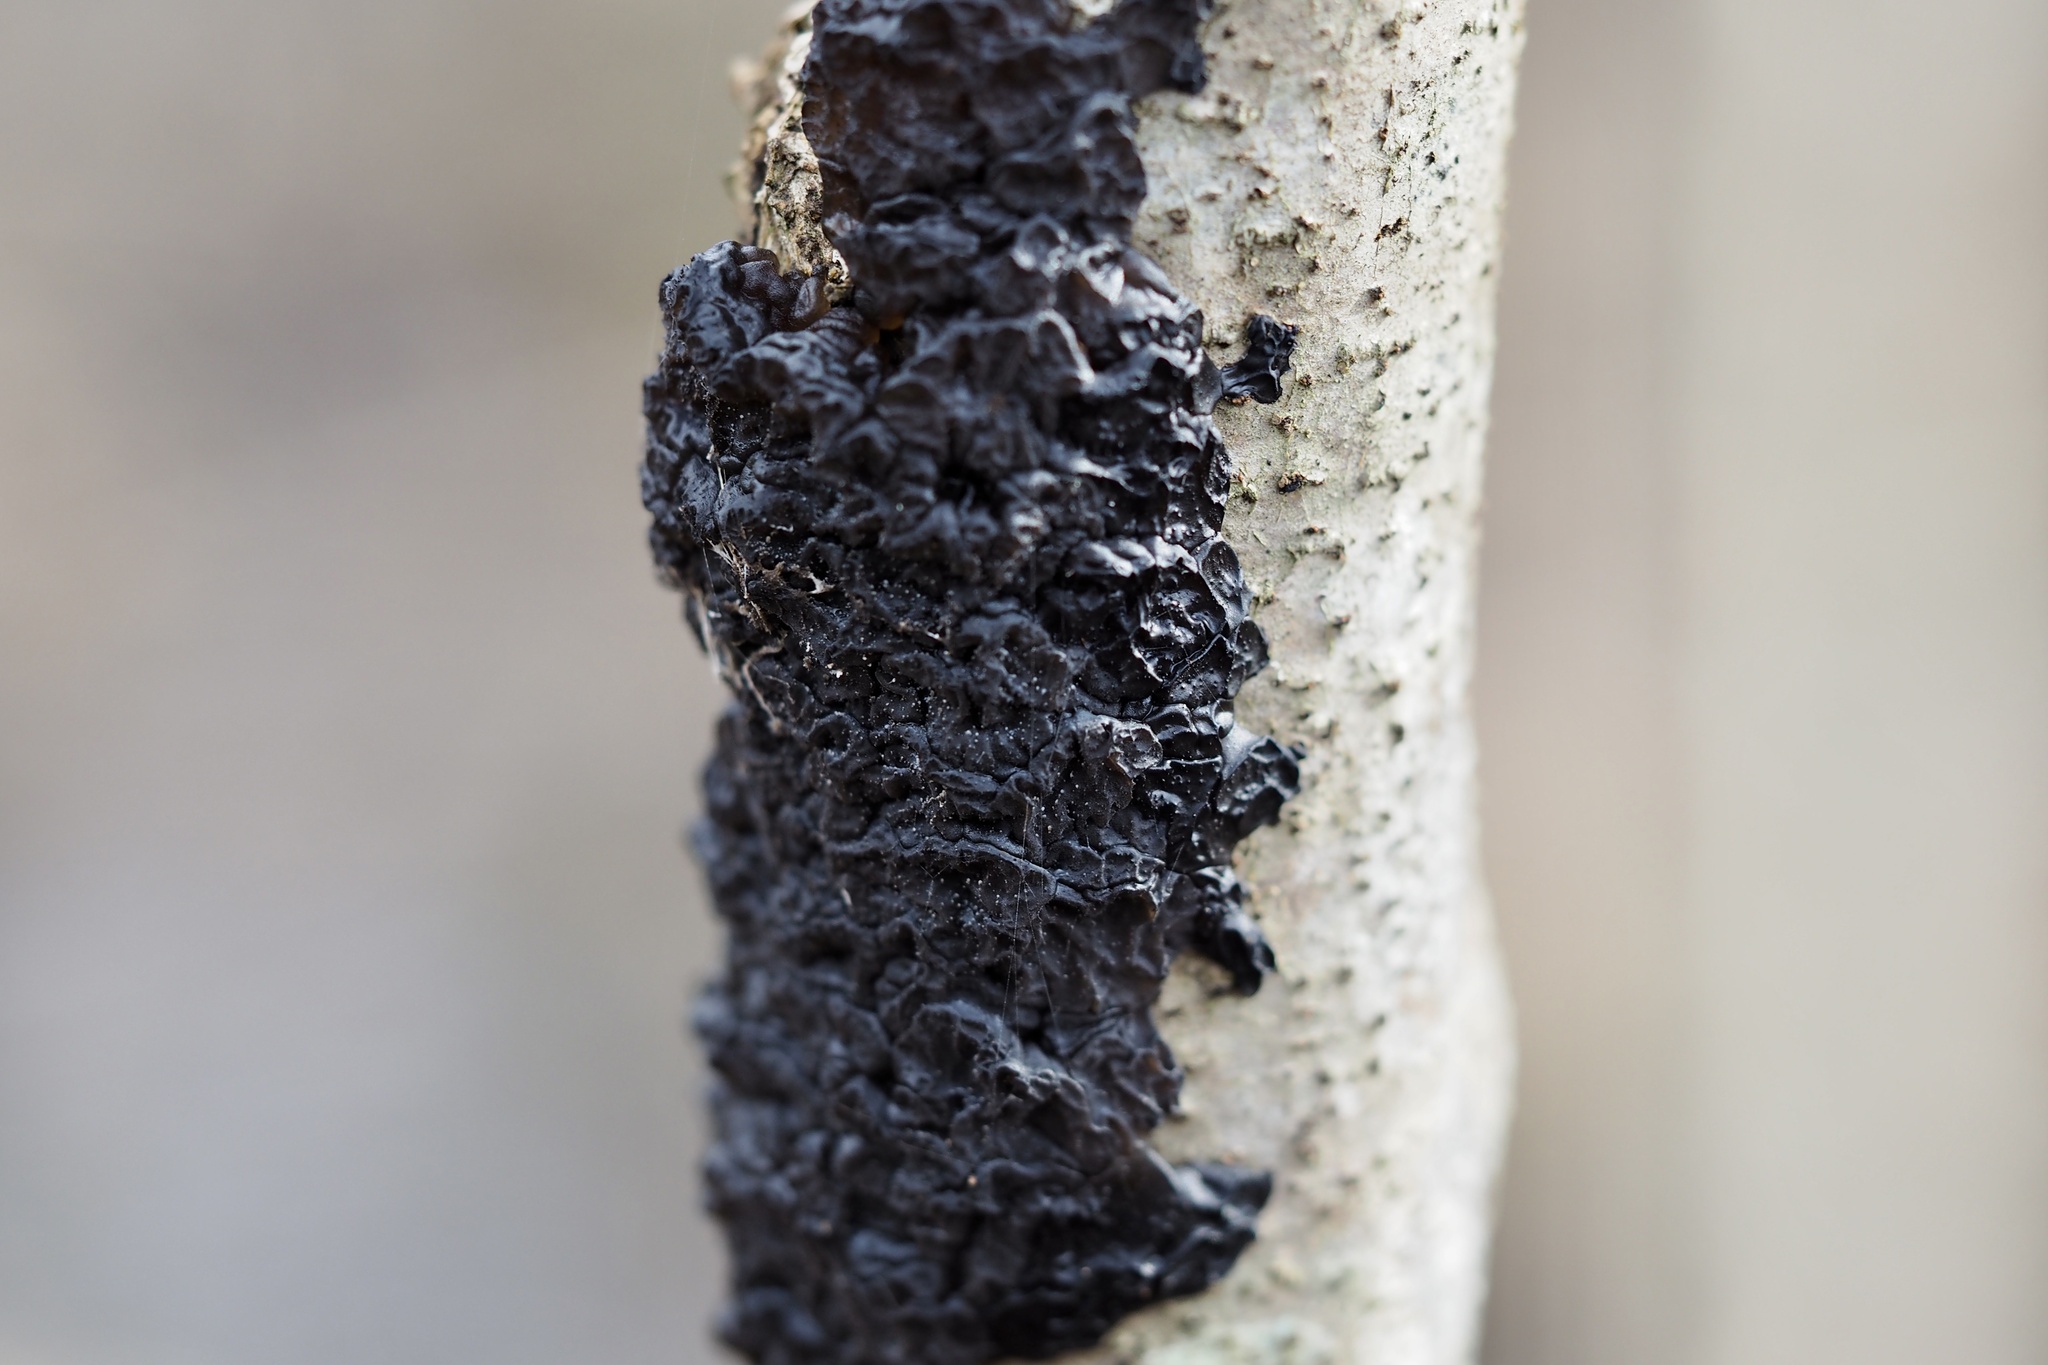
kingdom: Fungi
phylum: Basidiomycota
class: Agaricomycetes
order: Auriculariales
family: Auriculariaceae
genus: Exidia
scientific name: Exidia glandulosa
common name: Witches' butter
